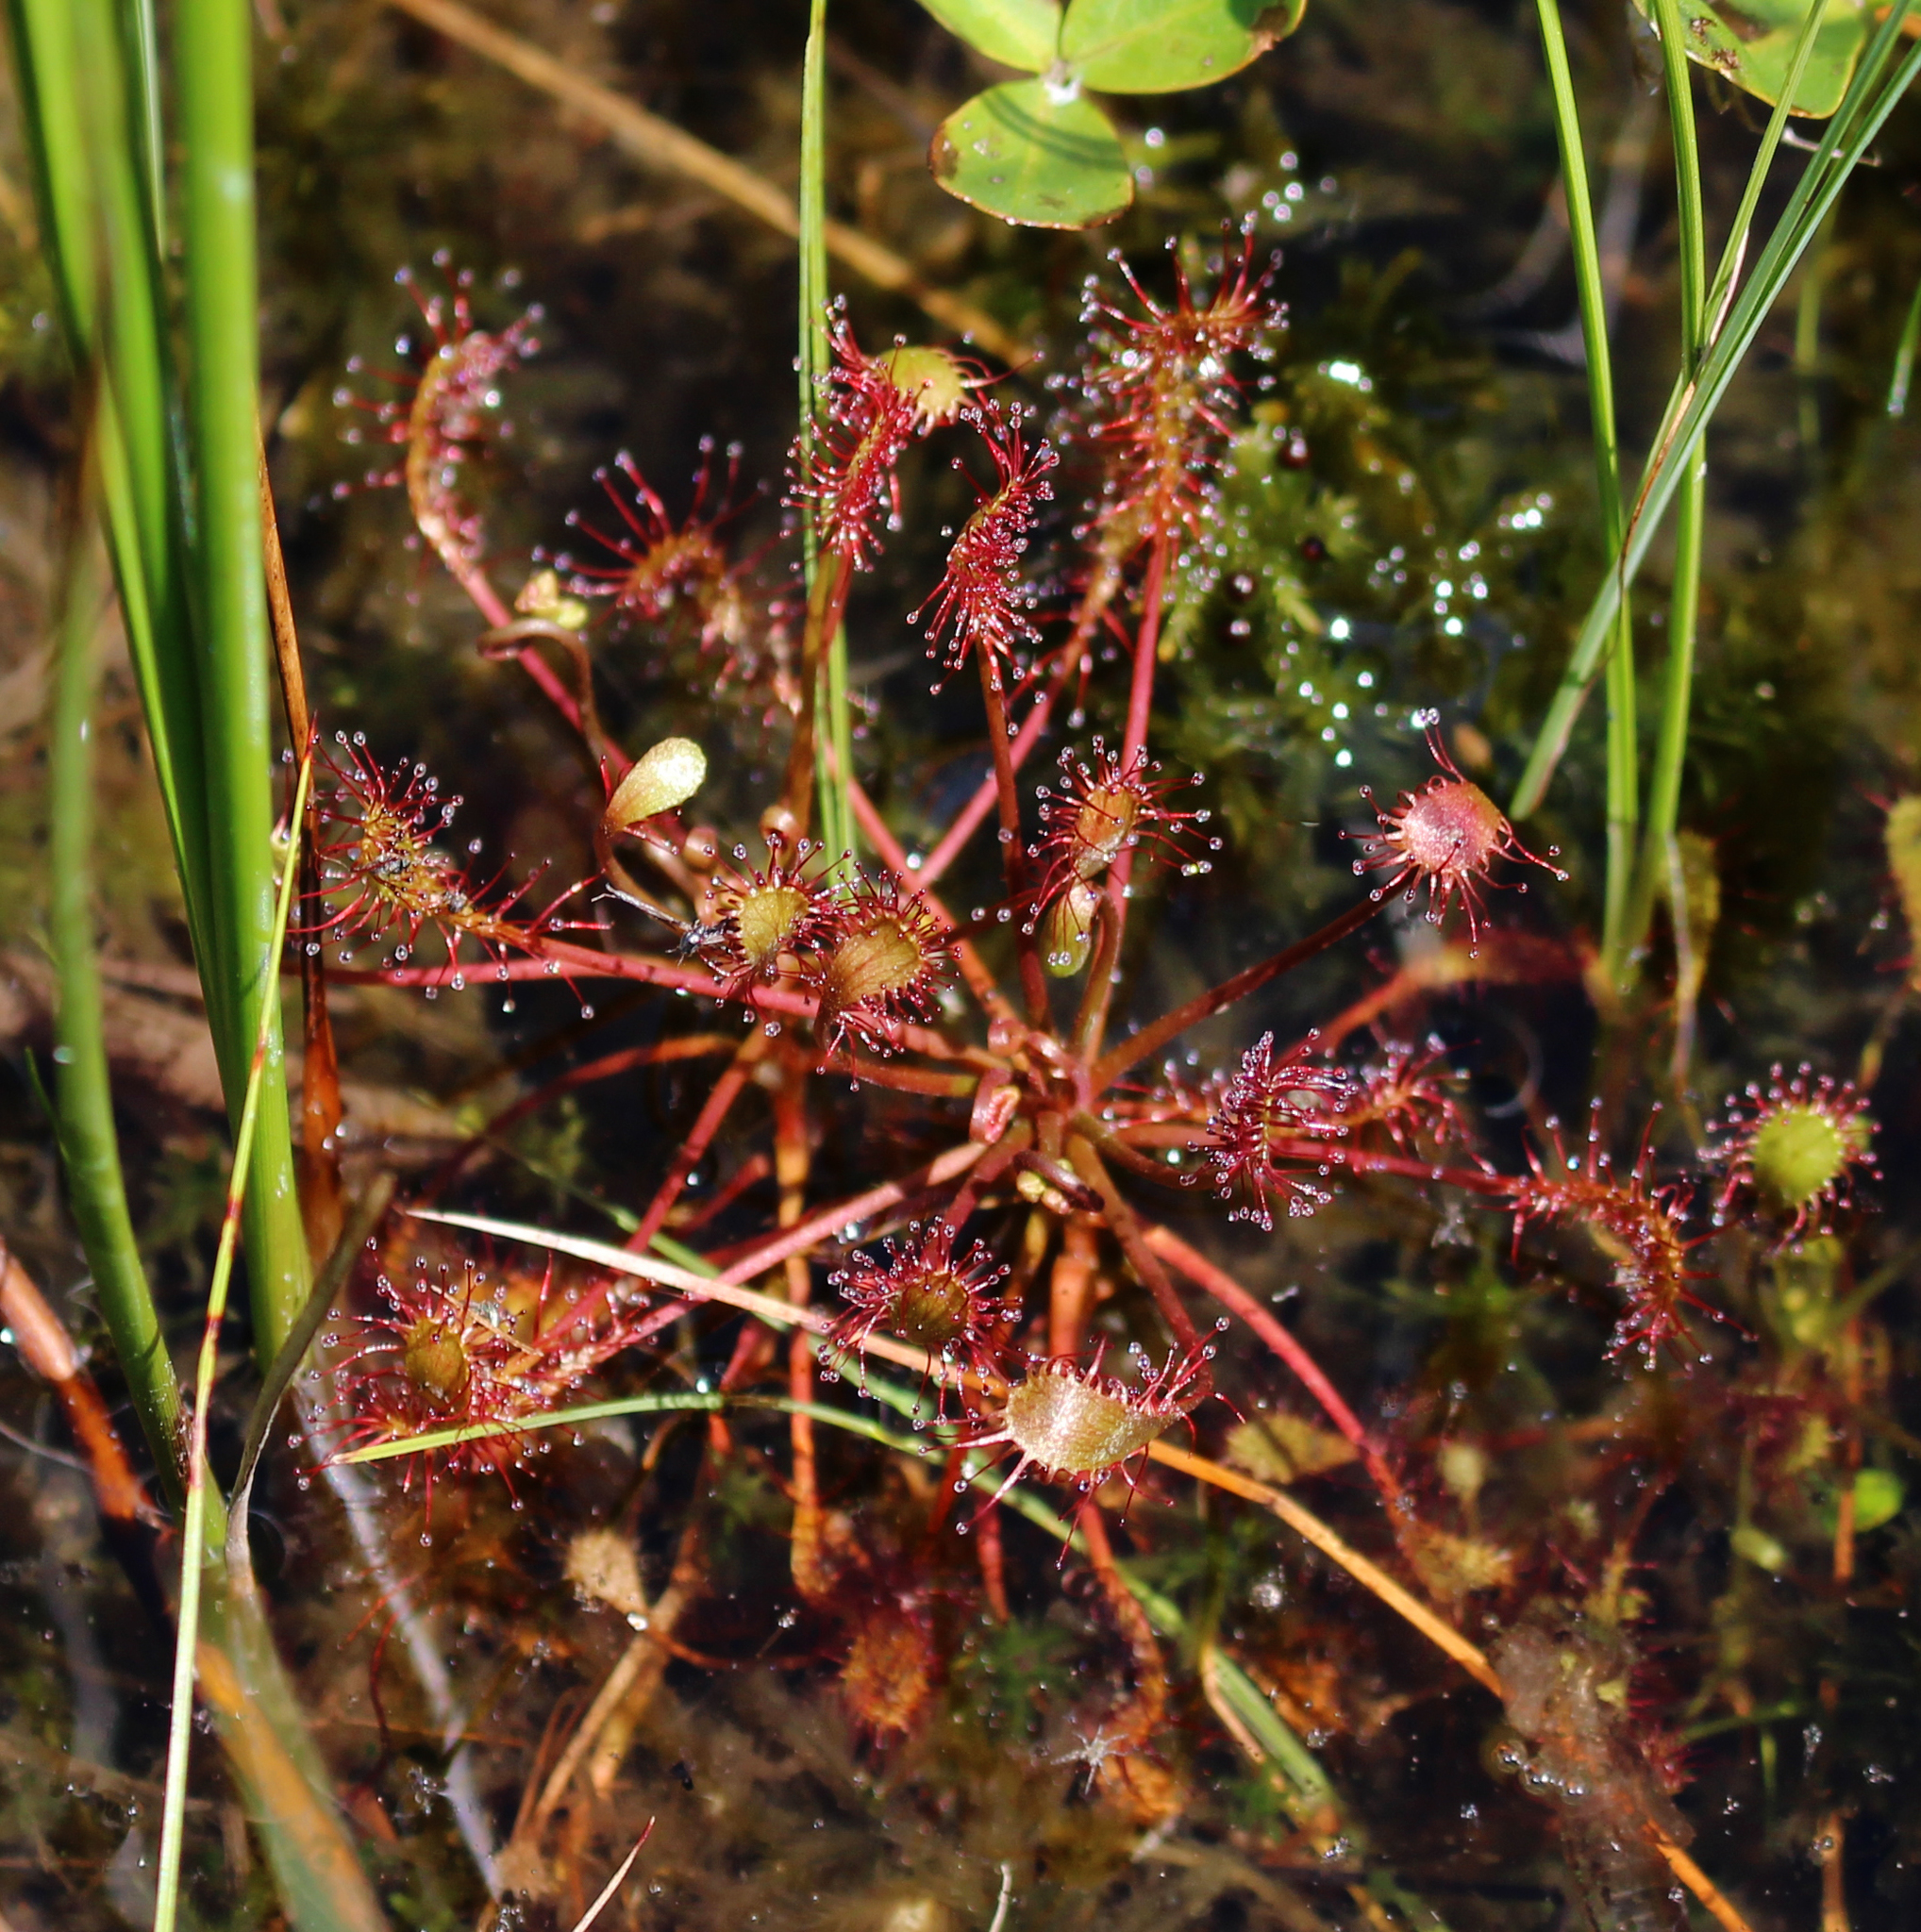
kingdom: Plantae
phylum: Tracheophyta
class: Magnoliopsida
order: Caryophyllales
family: Droseraceae
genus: Drosera
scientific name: Drosera intermedia
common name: Oblong-leaved sundew
